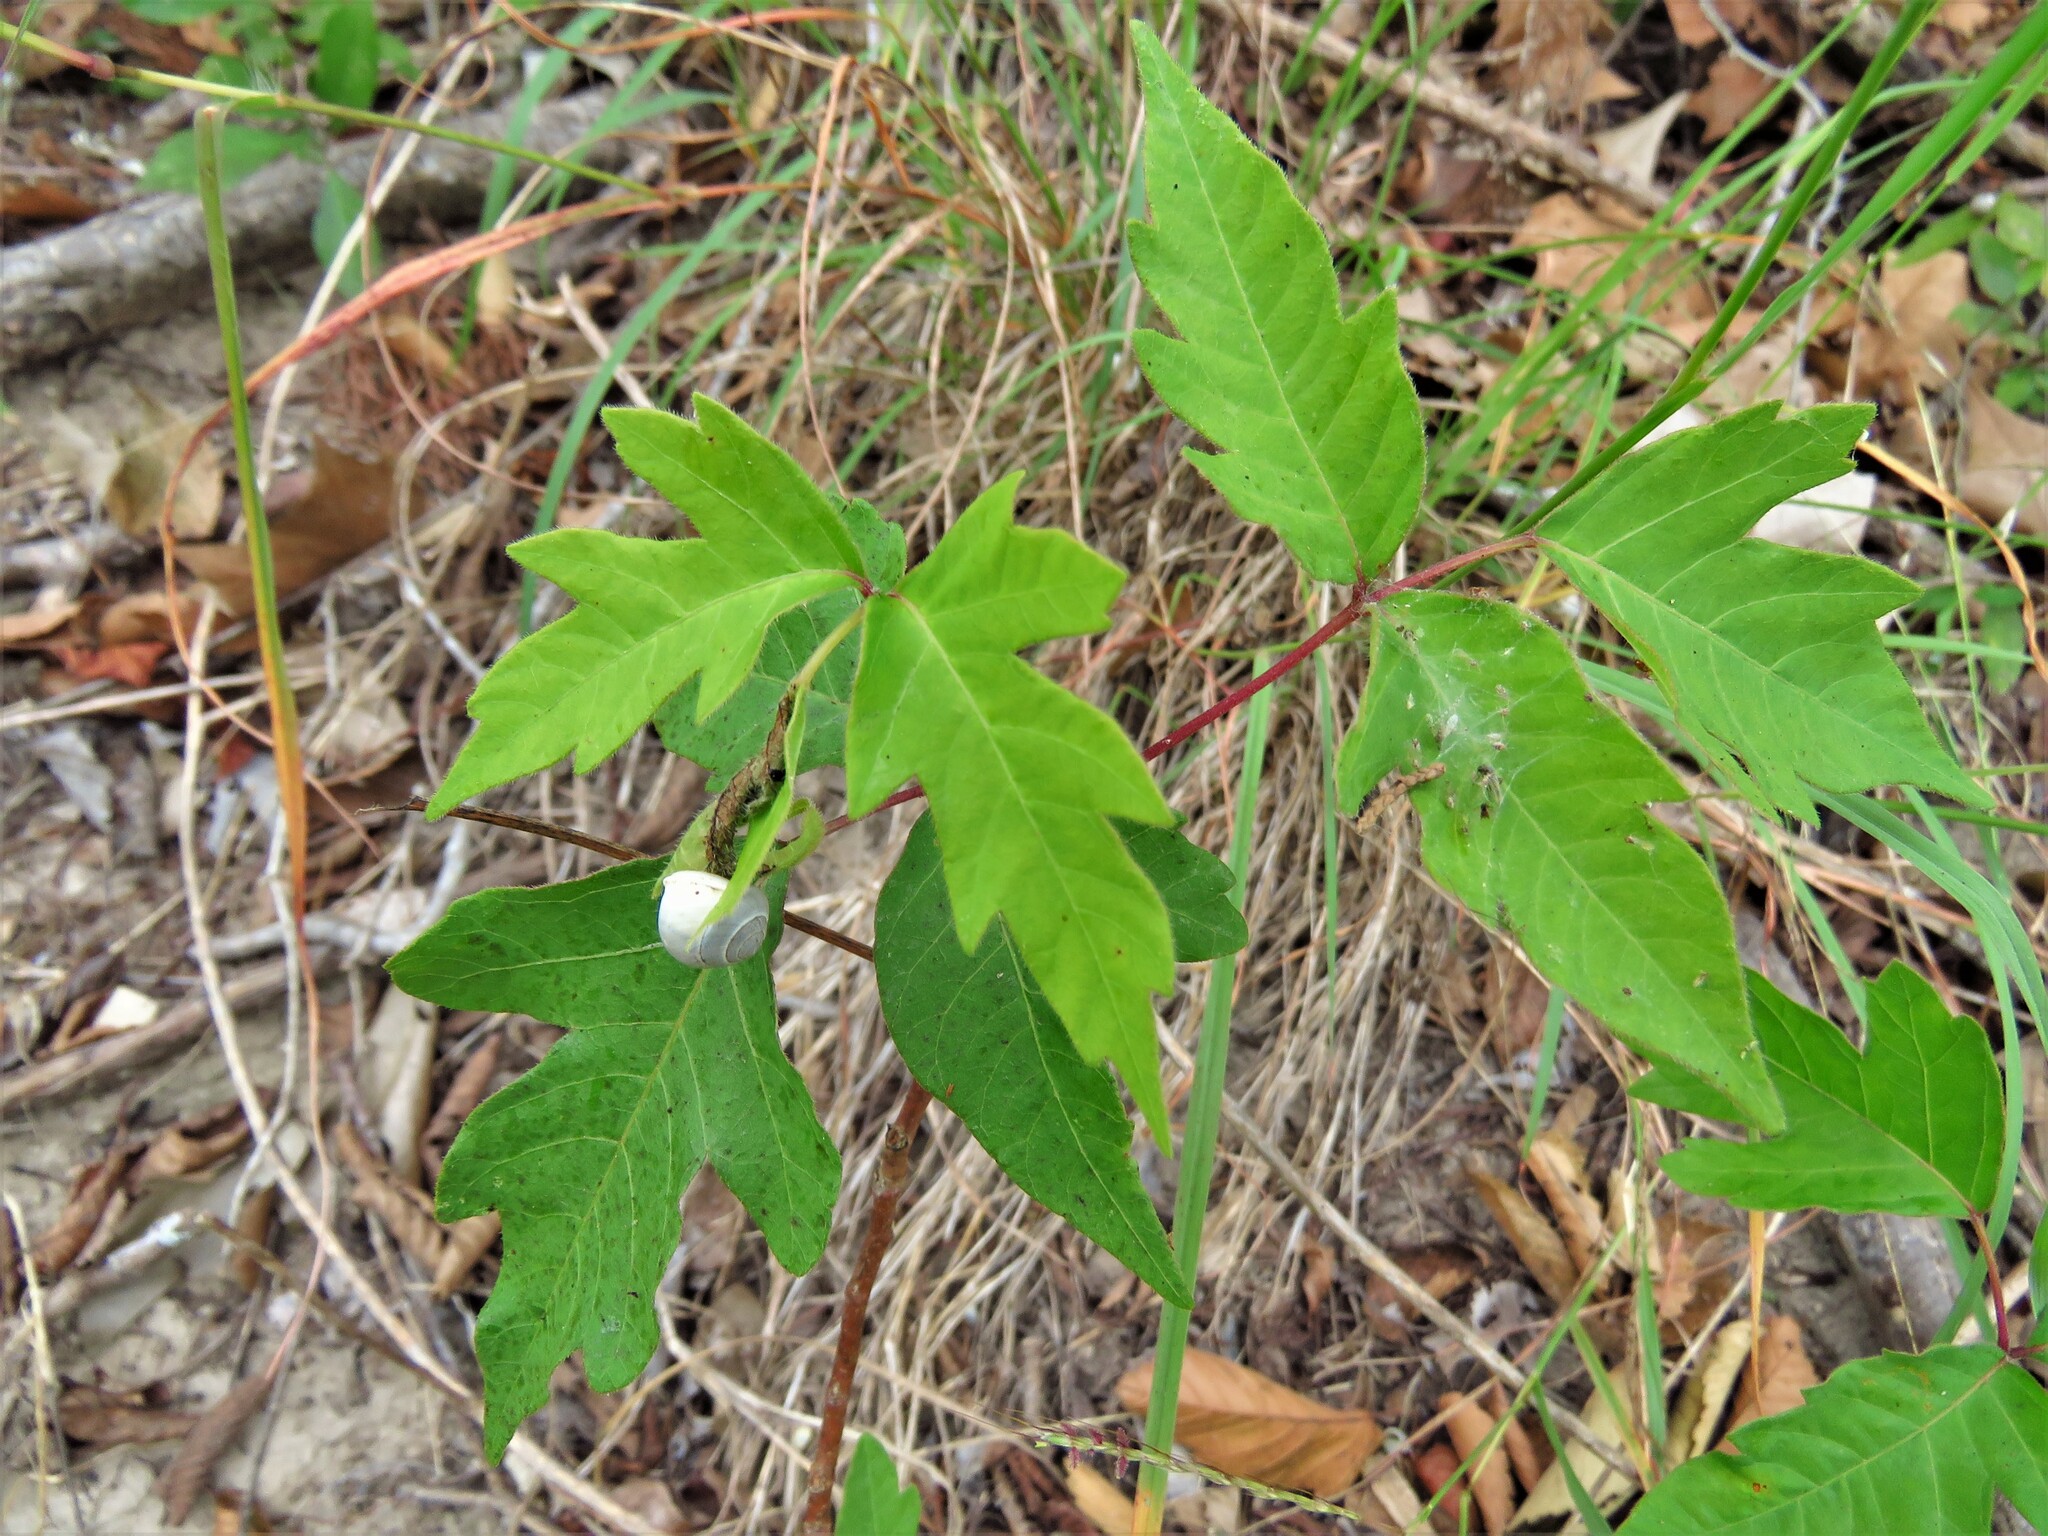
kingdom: Plantae
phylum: Tracheophyta
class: Magnoliopsida
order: Sapindales
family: Anacardiaceae
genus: Toxicodendron
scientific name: Toxicodendron radicans
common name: Poison ivy
